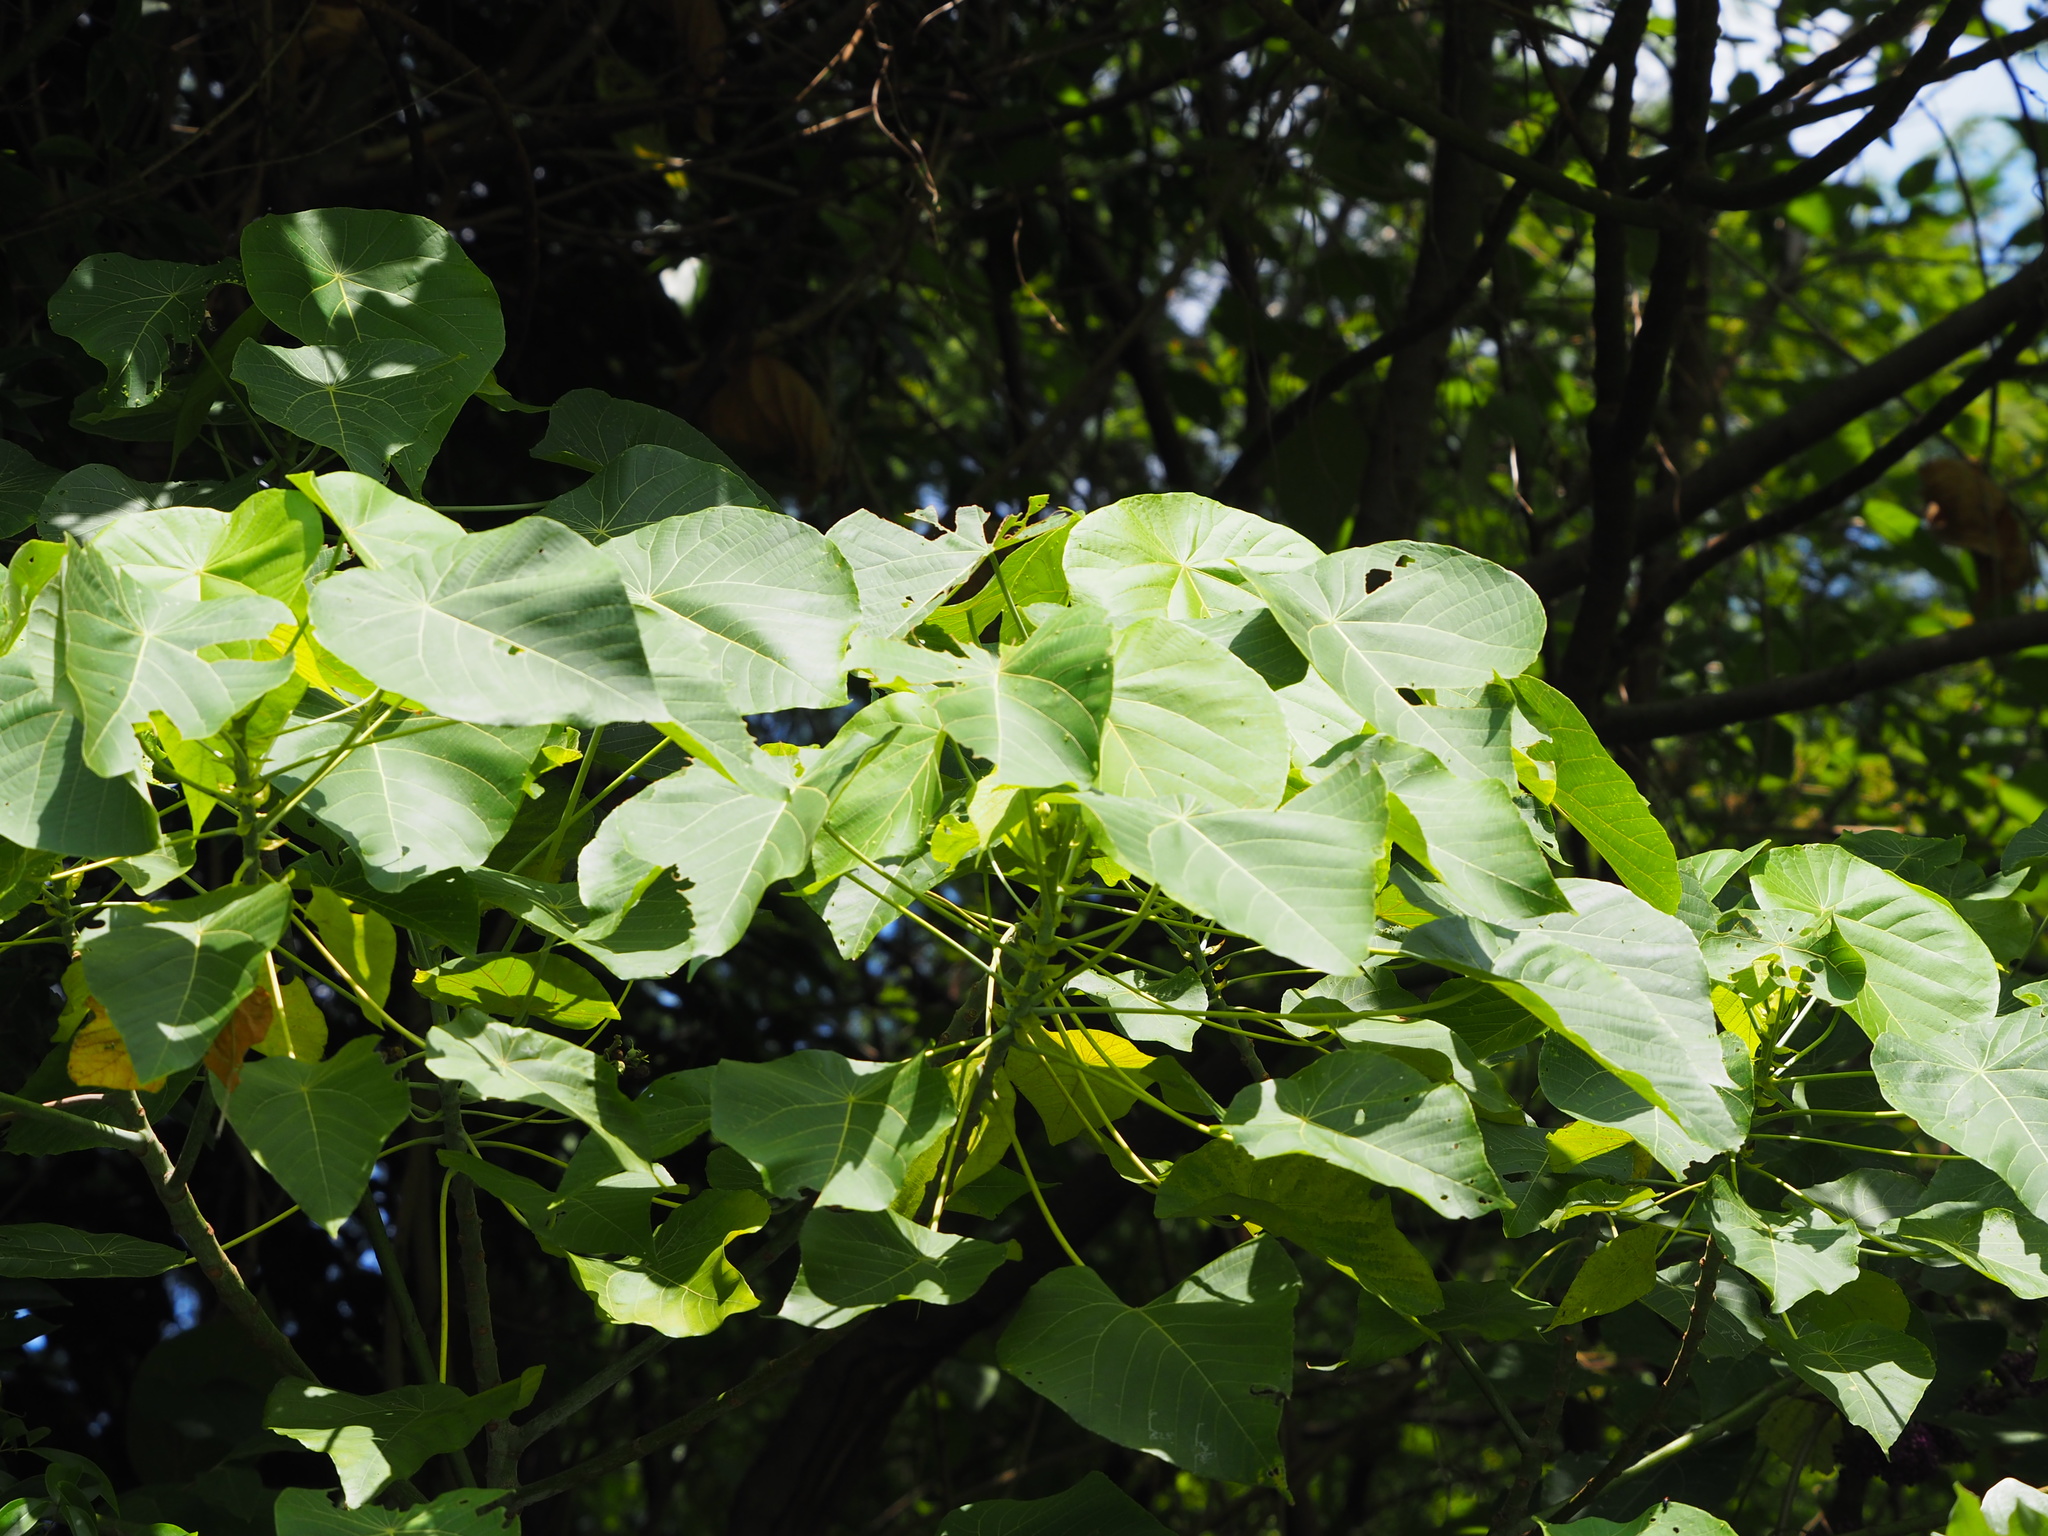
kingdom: Plantae
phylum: Tracheophyta
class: Magnoliopsida
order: Malpighiales
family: Euphorbiaceae
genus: Macaranga
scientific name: Macaranga tanarius
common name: Parasol leaf tree
